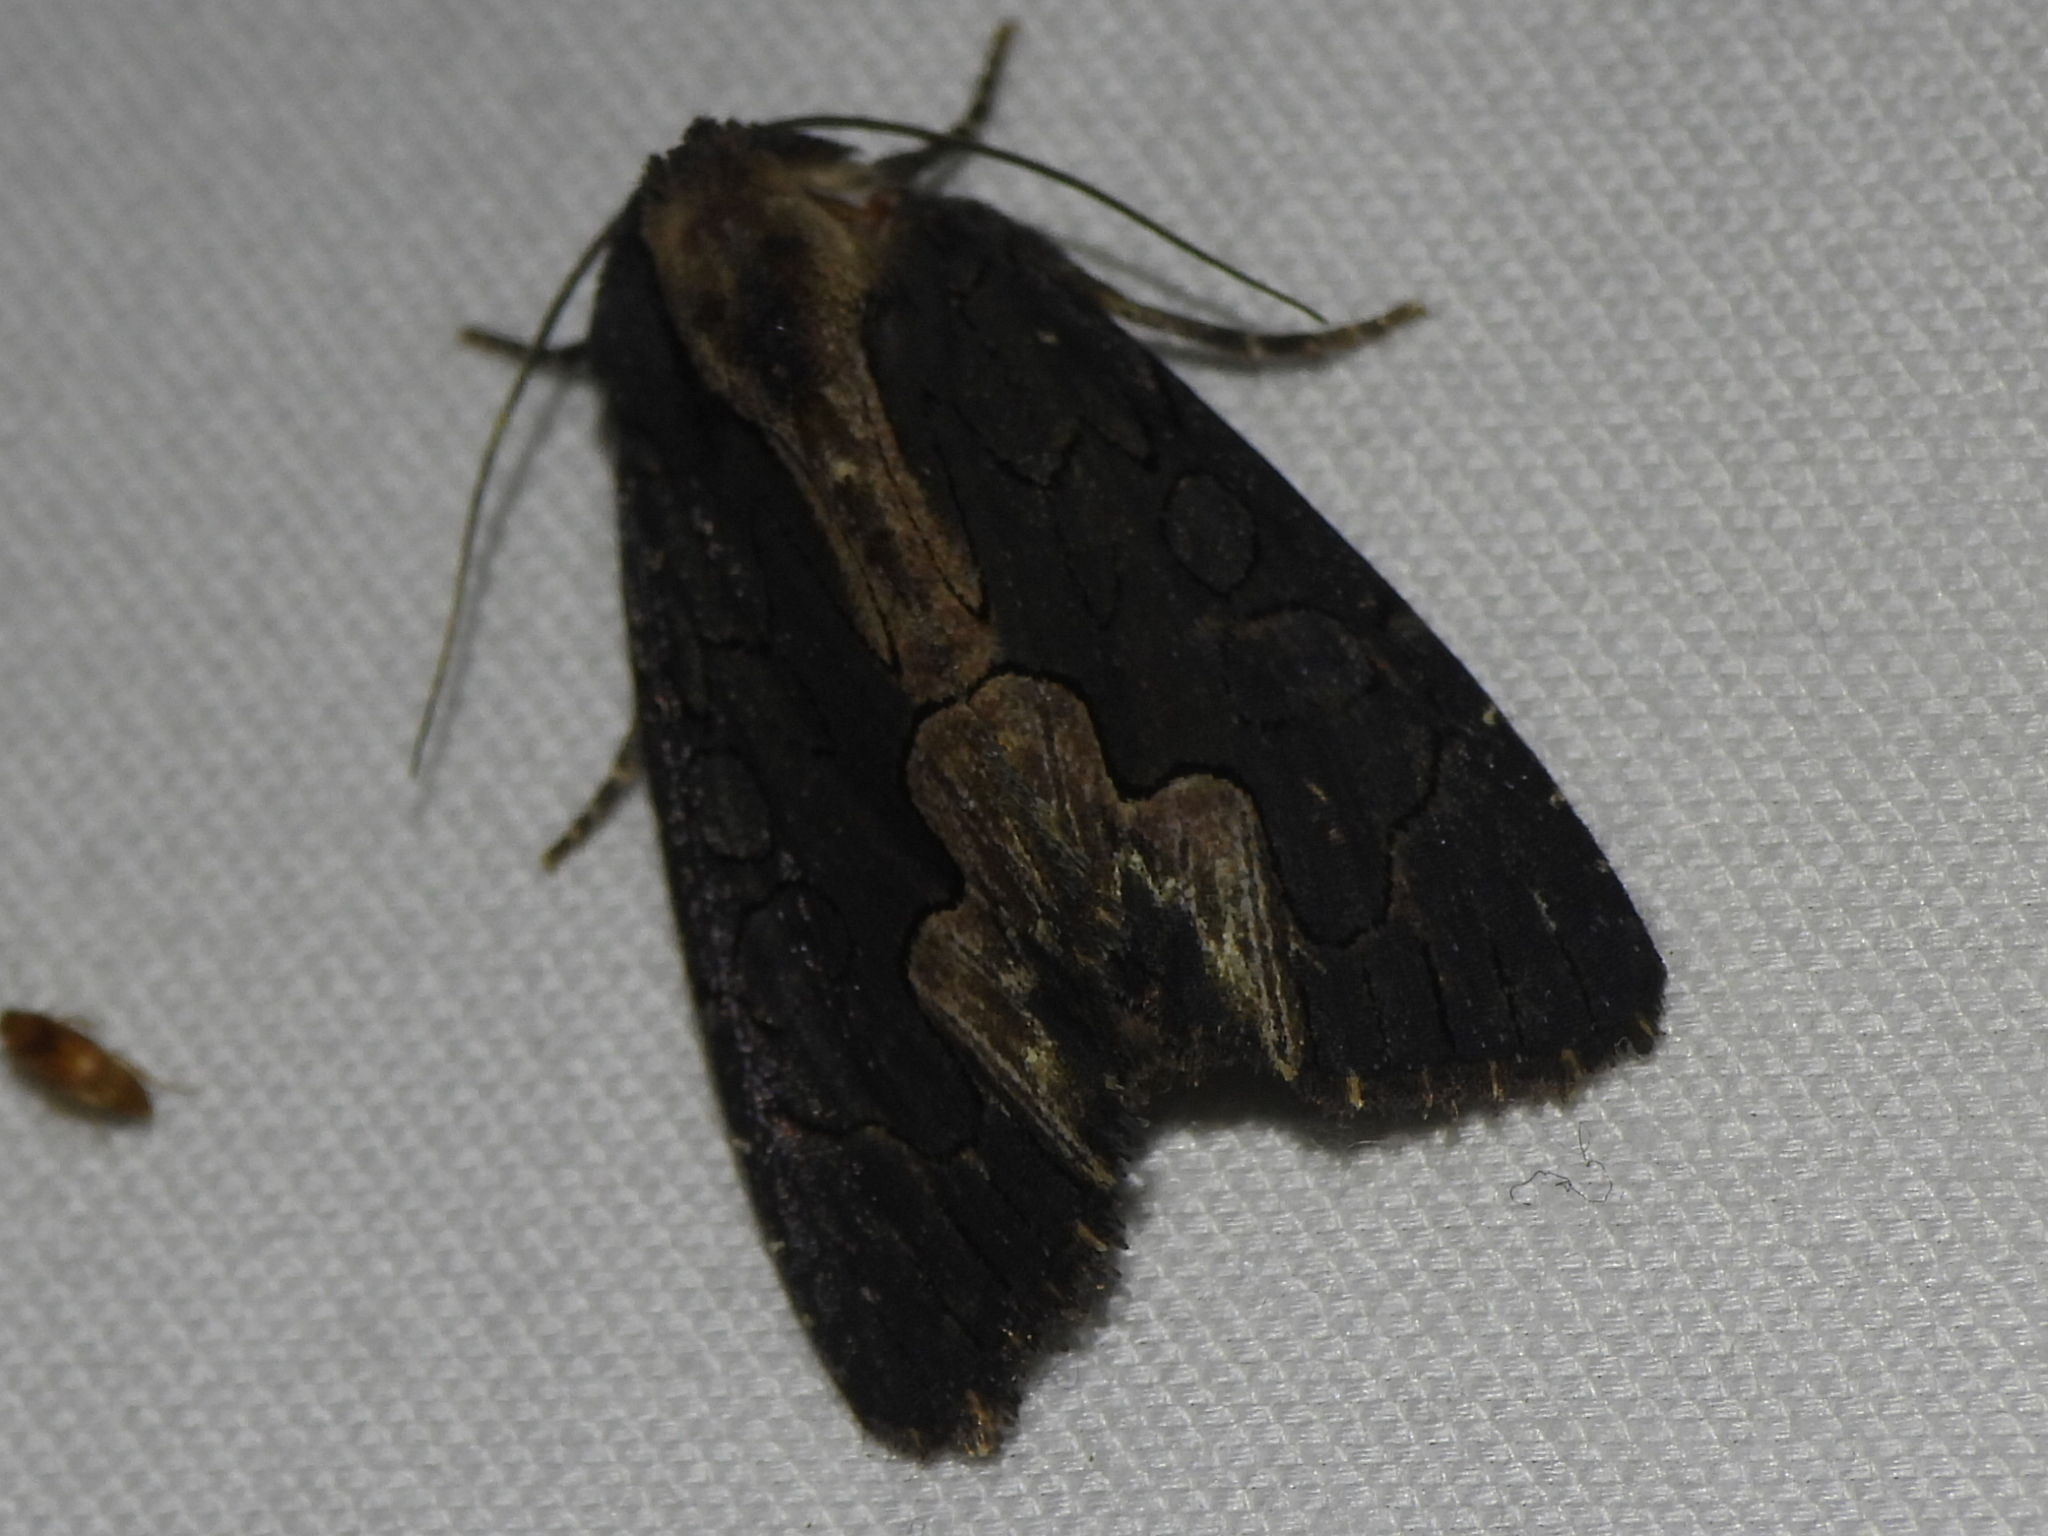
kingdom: Animalia
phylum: Arthropoda
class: Insecta
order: Lepidoptera
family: Noctuidae
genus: Dypterygia
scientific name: Dypterygia rozmani
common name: American bird's-wing
